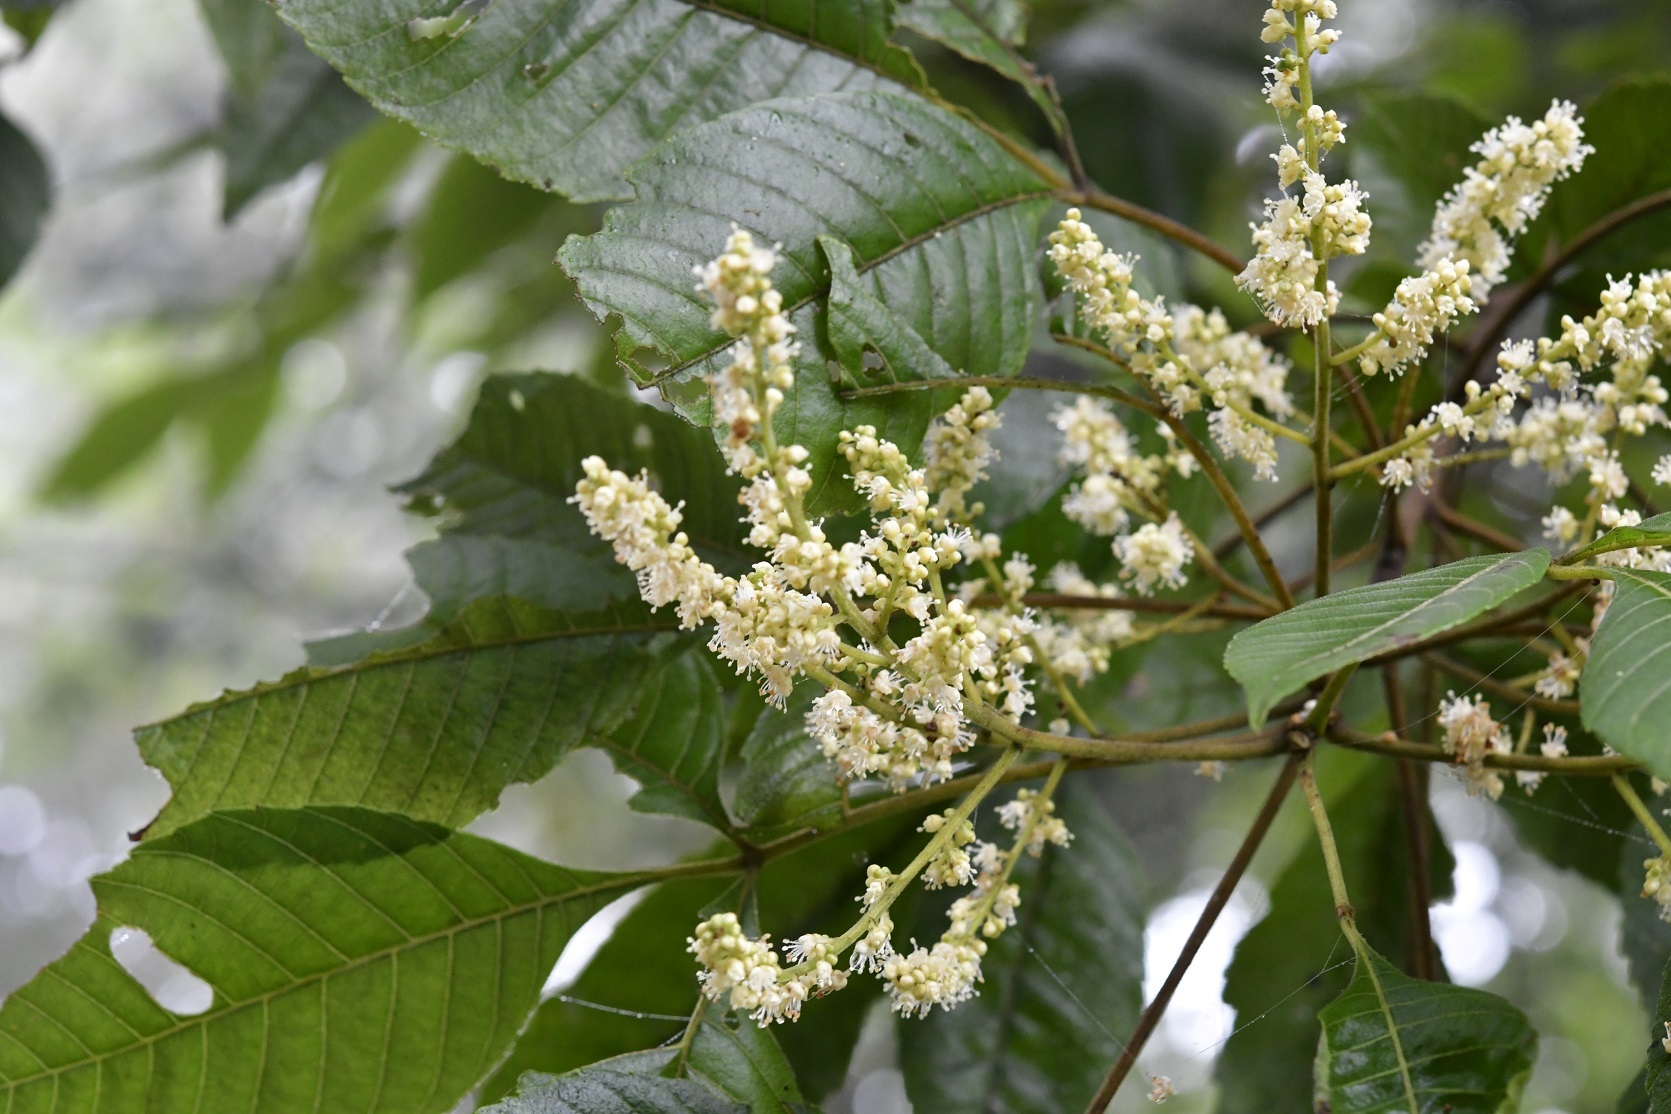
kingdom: Plantae
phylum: Tracheophyta
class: Magnoliopsida
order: Sapindales
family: Sapindaceae
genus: Thouinia
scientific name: Thouinia serrata
